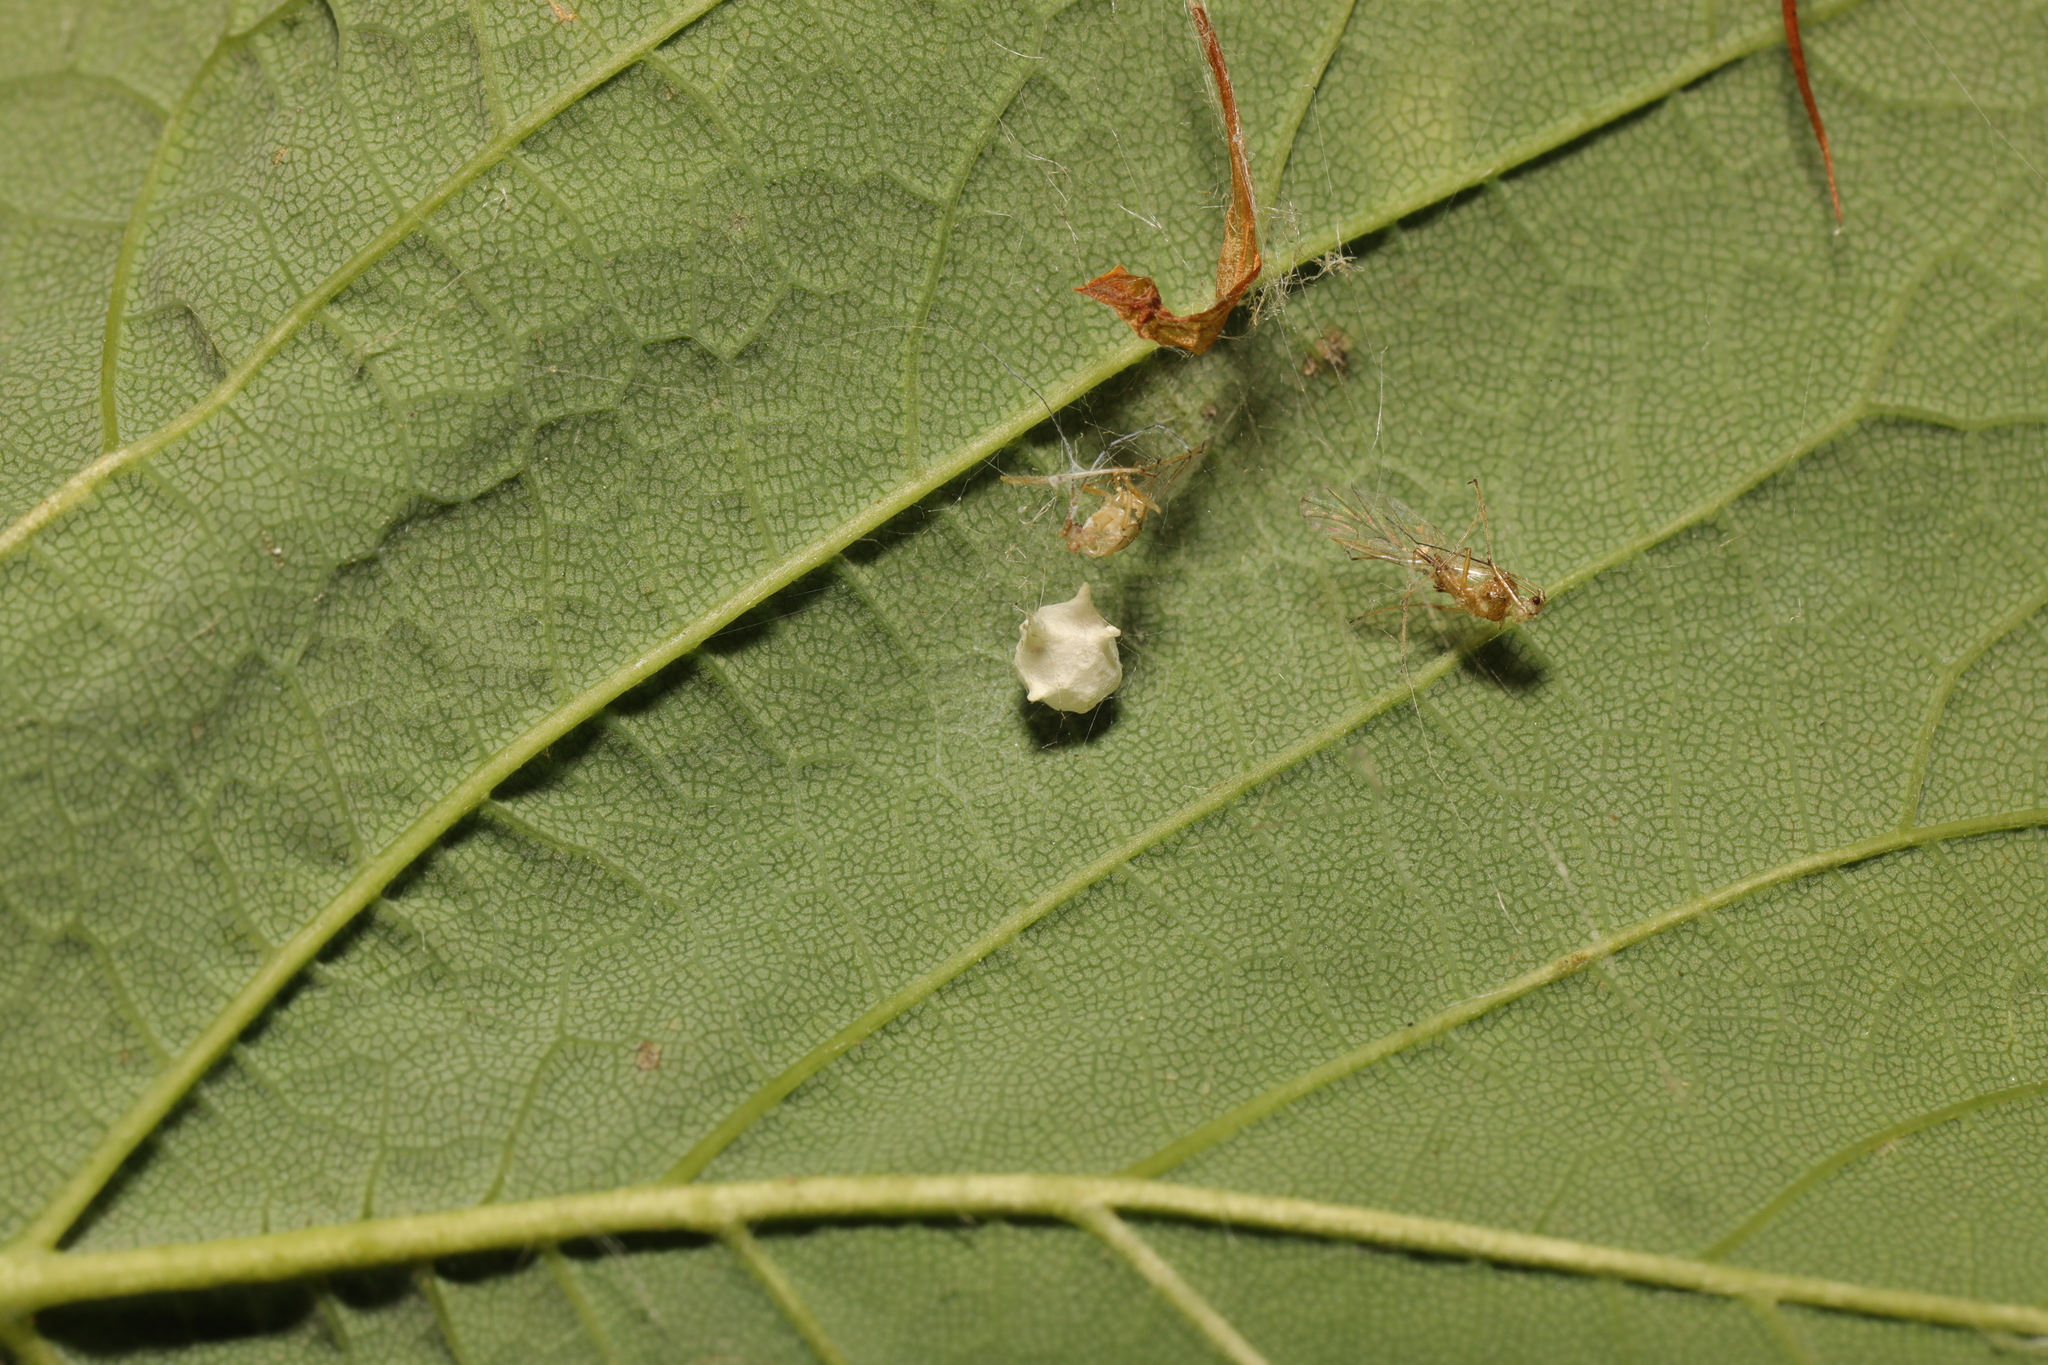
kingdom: Animalia
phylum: Arthropoda
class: Arachnida
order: Araneae
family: Theridiidae
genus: Paidiscura
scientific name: Paidiscura pallens
